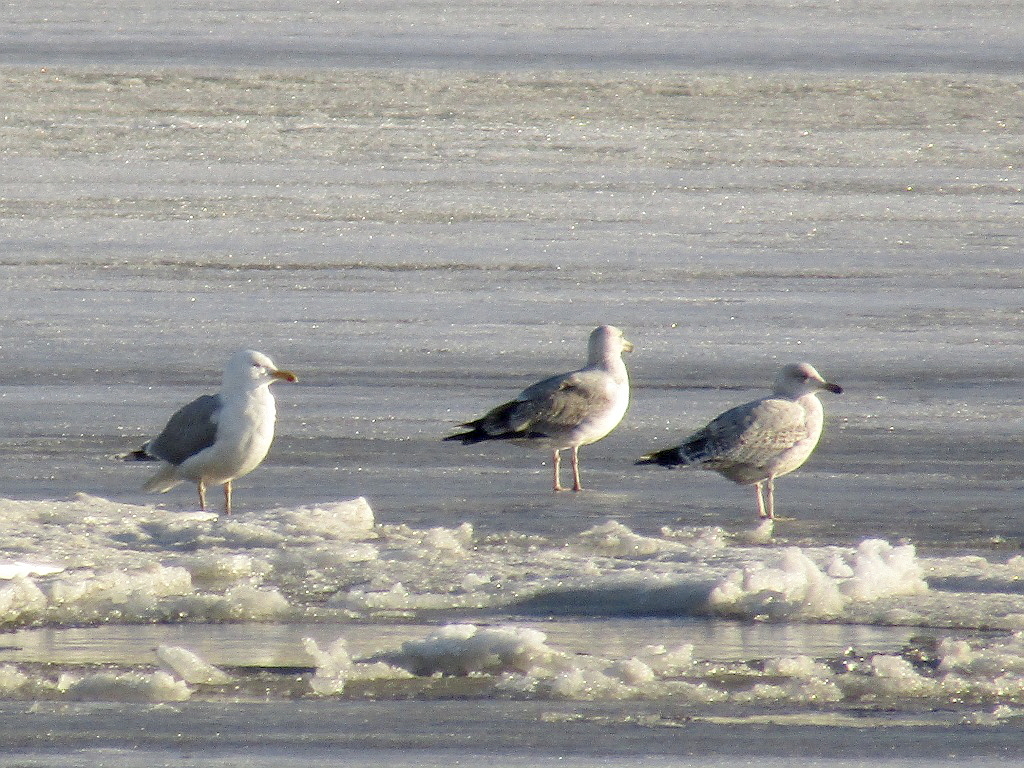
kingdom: Animalia
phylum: Chordata
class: Aves
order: Charadriiformes
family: Laridae
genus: Larus
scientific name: Larus argentatus
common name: Herring gull
